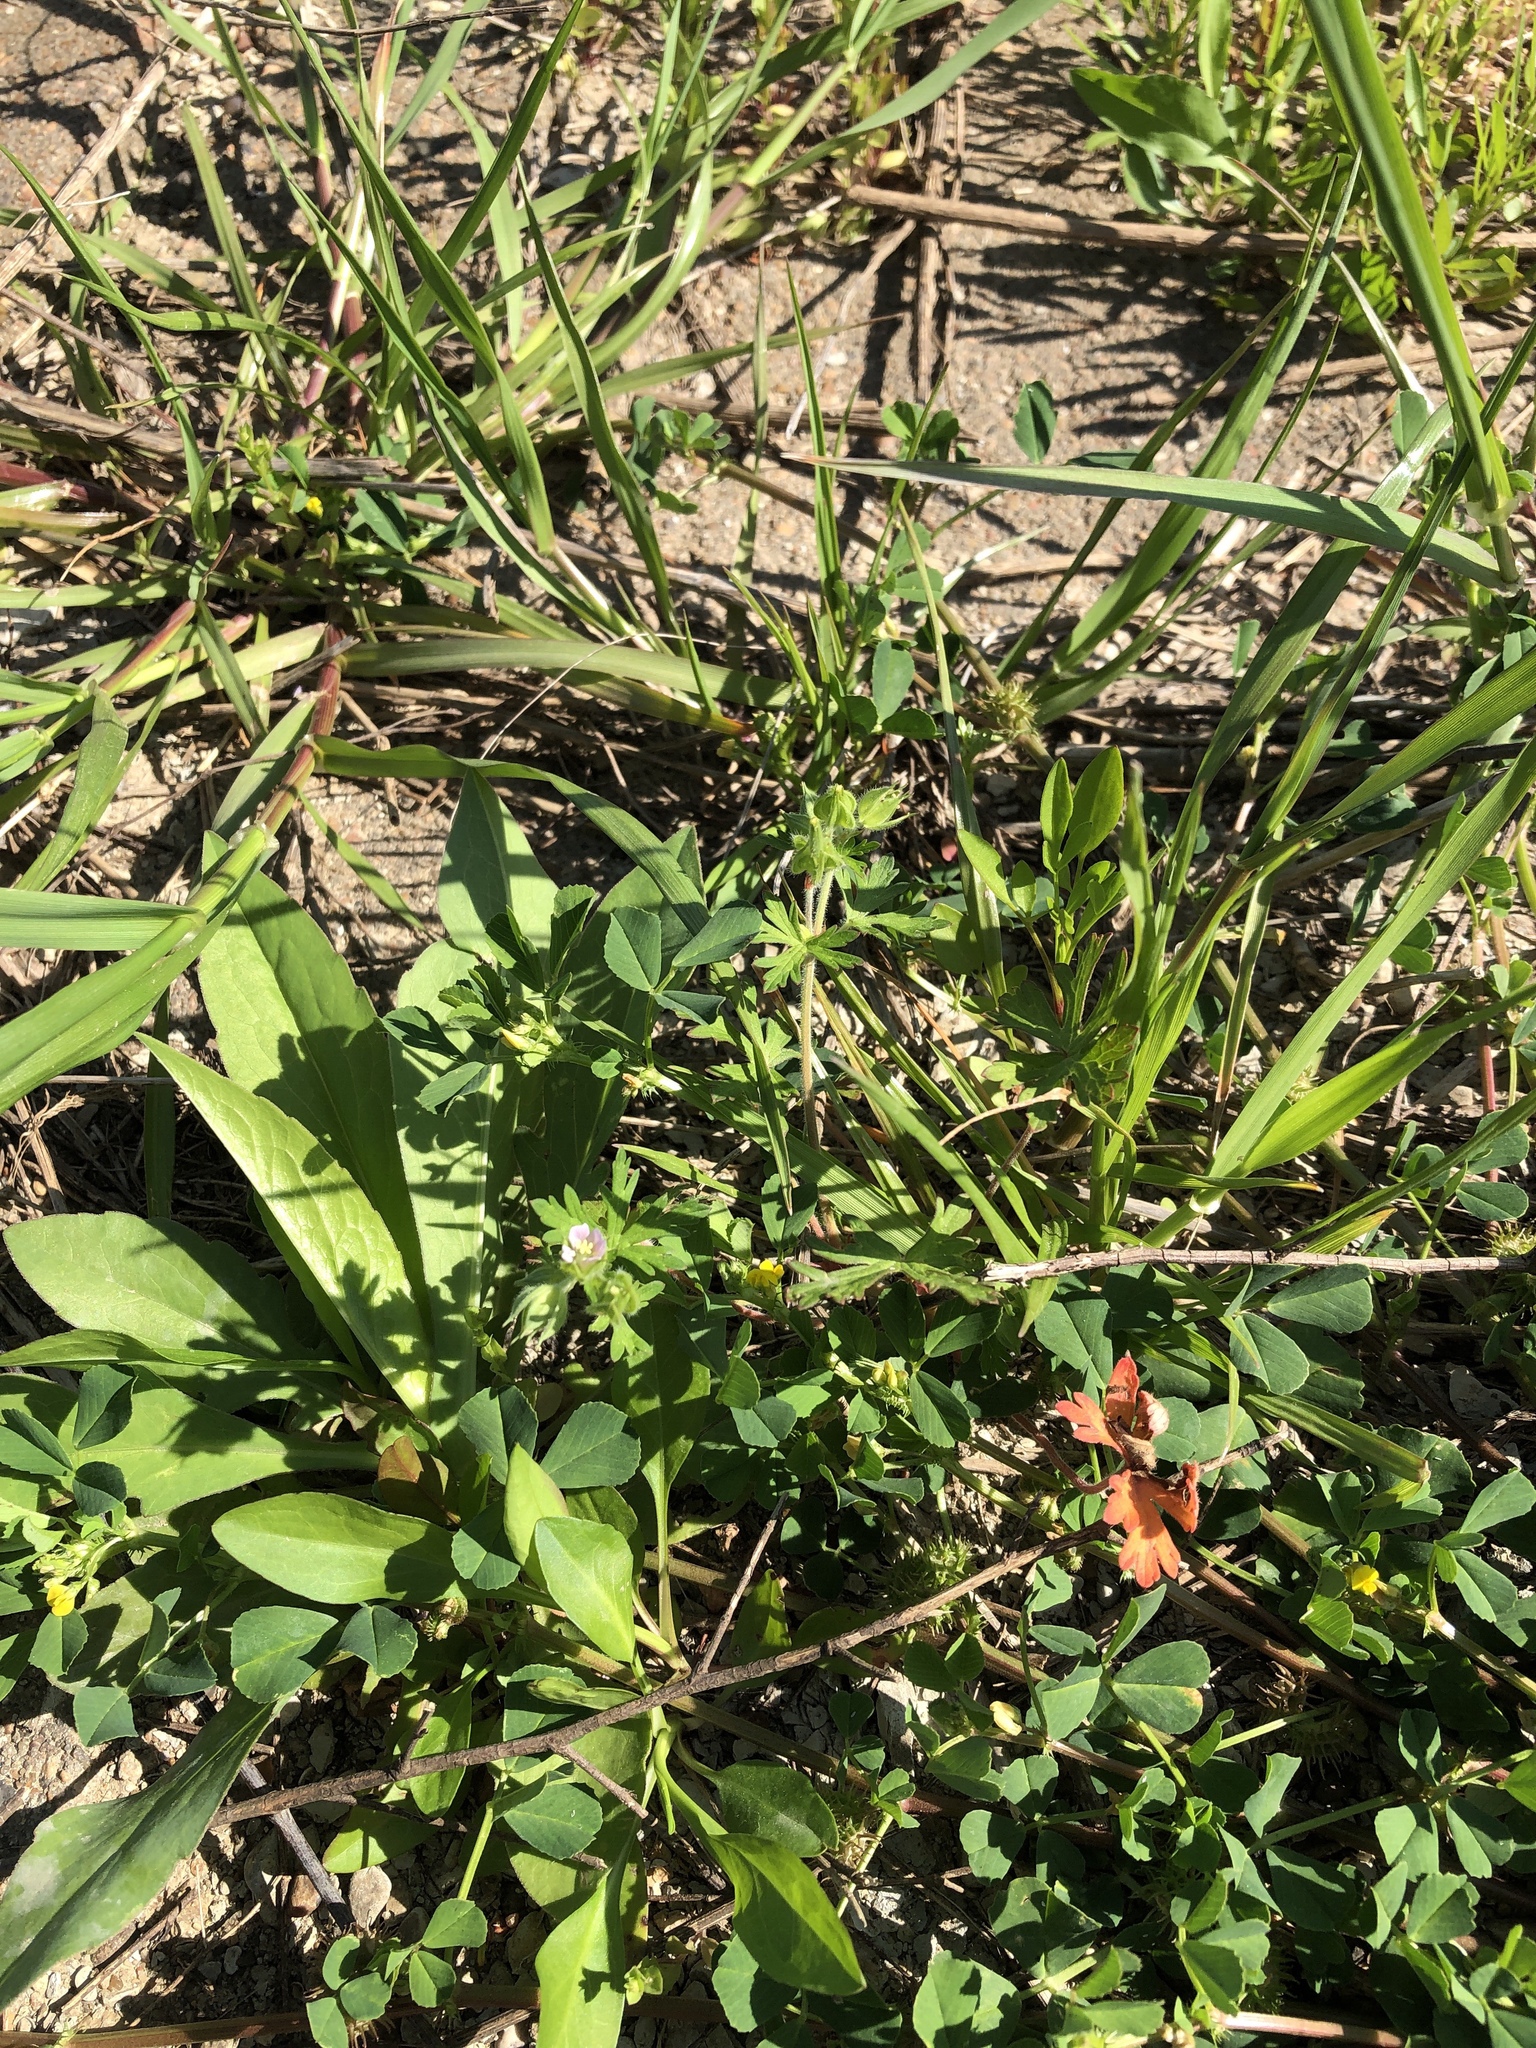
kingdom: Plantae
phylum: Tracheophyta
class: Magnoliopsida
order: Geraniales
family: Geraniaceae
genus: Geranium
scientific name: Geranium carolinianum
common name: Carolina crane's-bill
